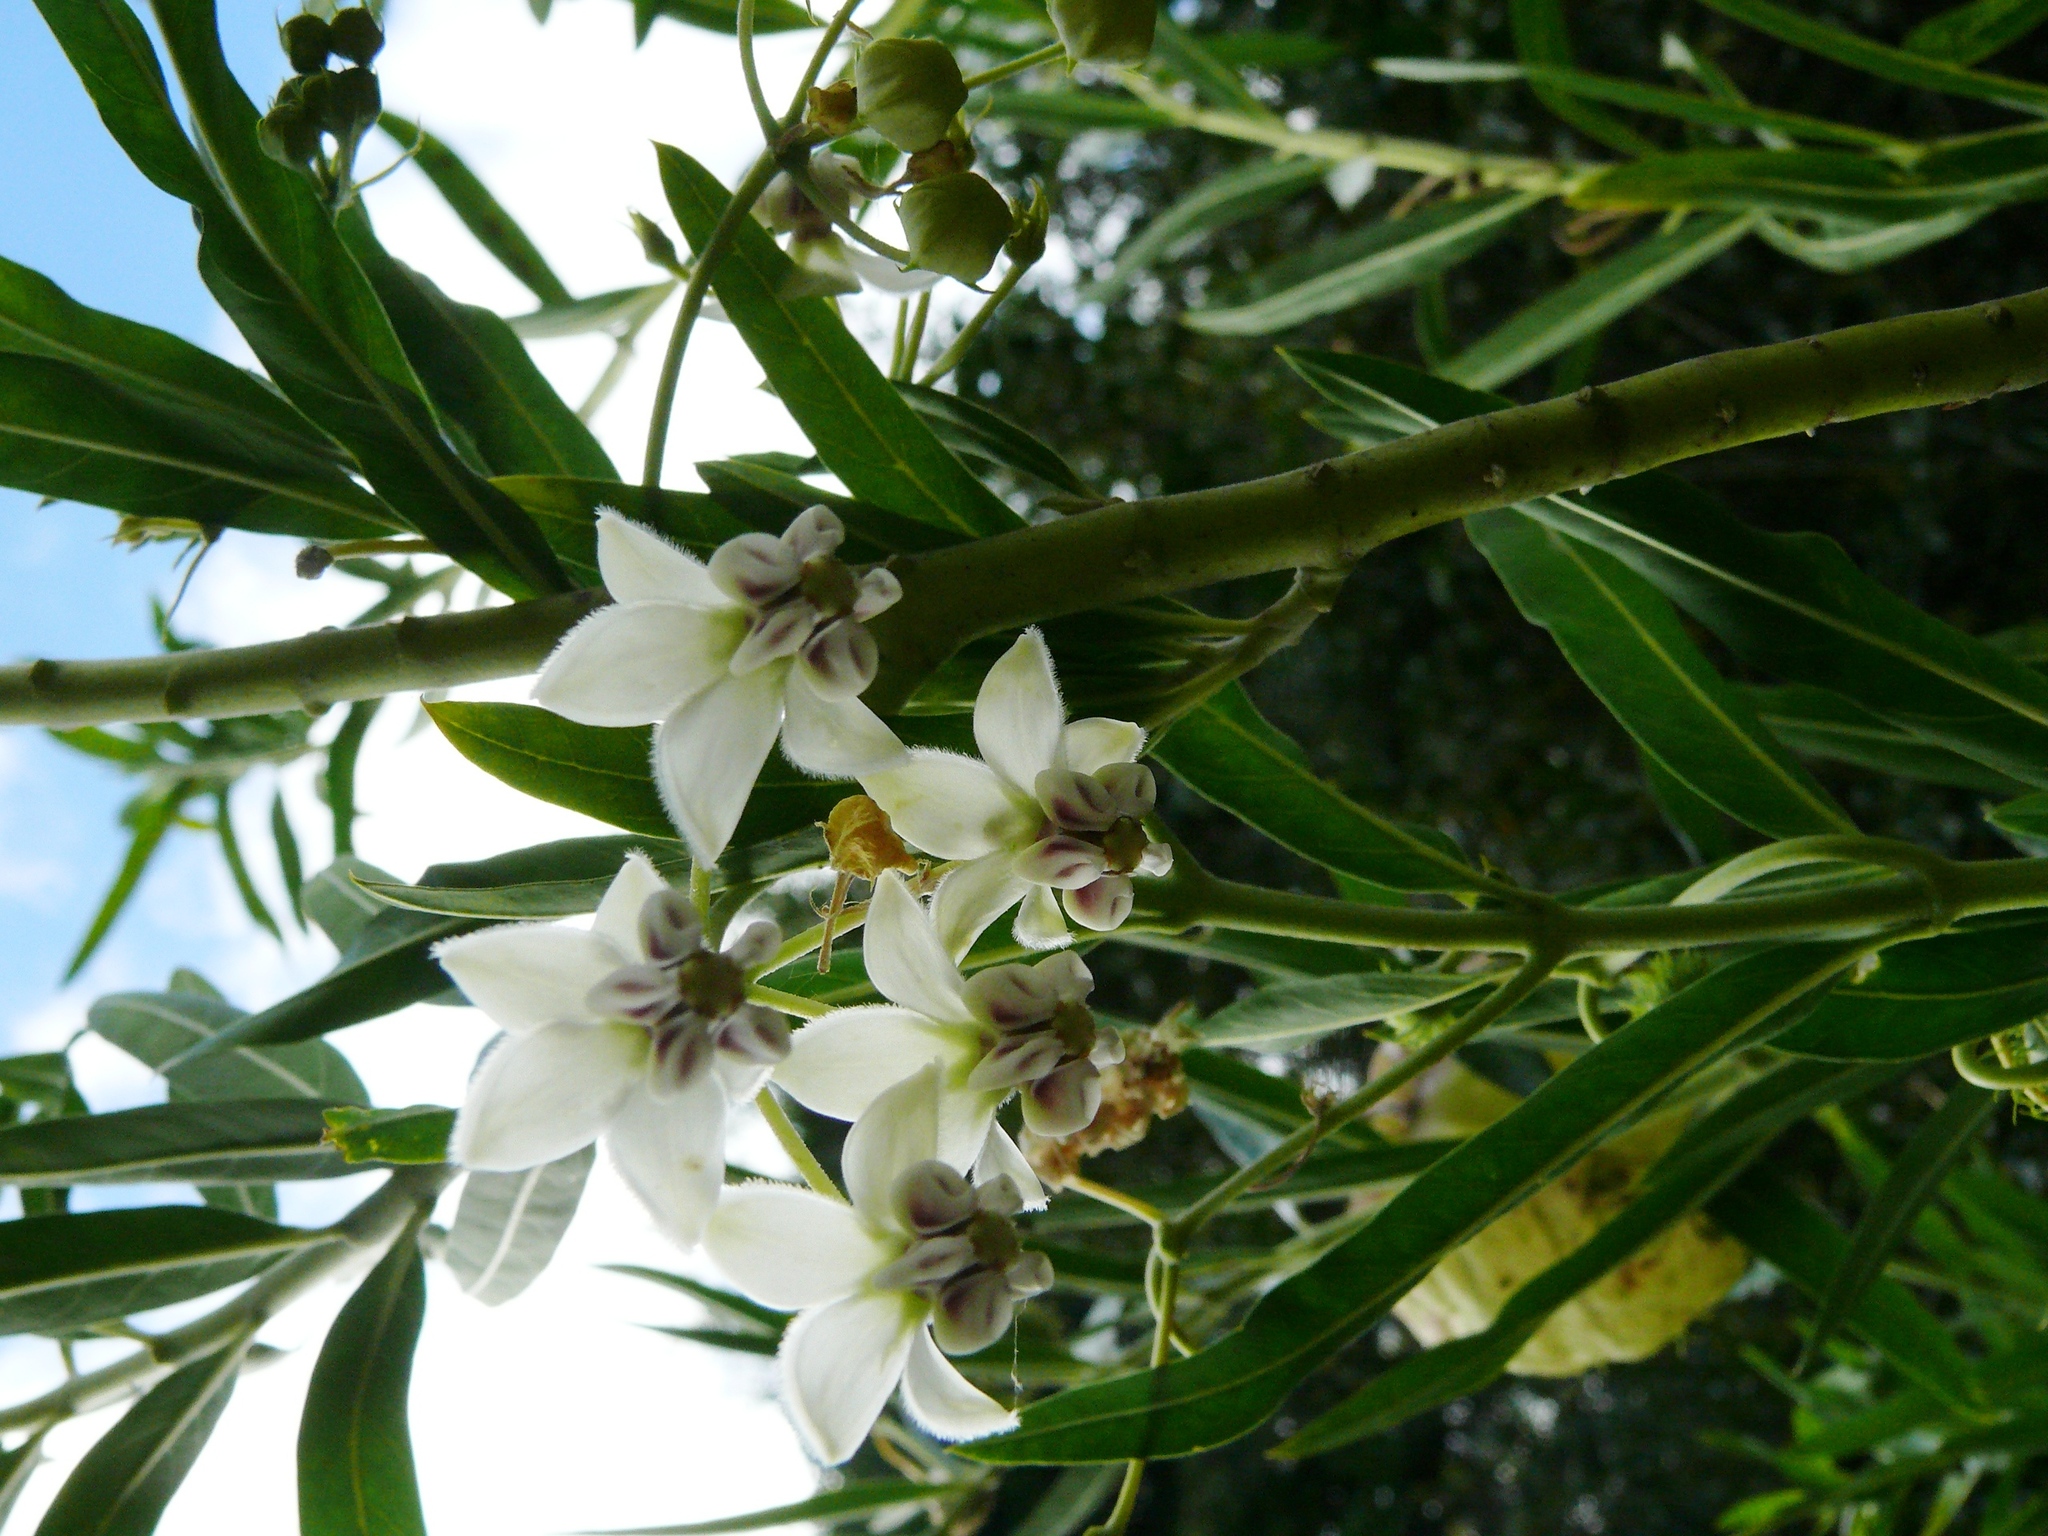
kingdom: Plantae
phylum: Tracheophyta
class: Magnoliopsida
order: Gentianales
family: Apocynaceae
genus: Gomphocarpus
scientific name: Gomphocarpus physocarpus
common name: Balloon cotton bush
